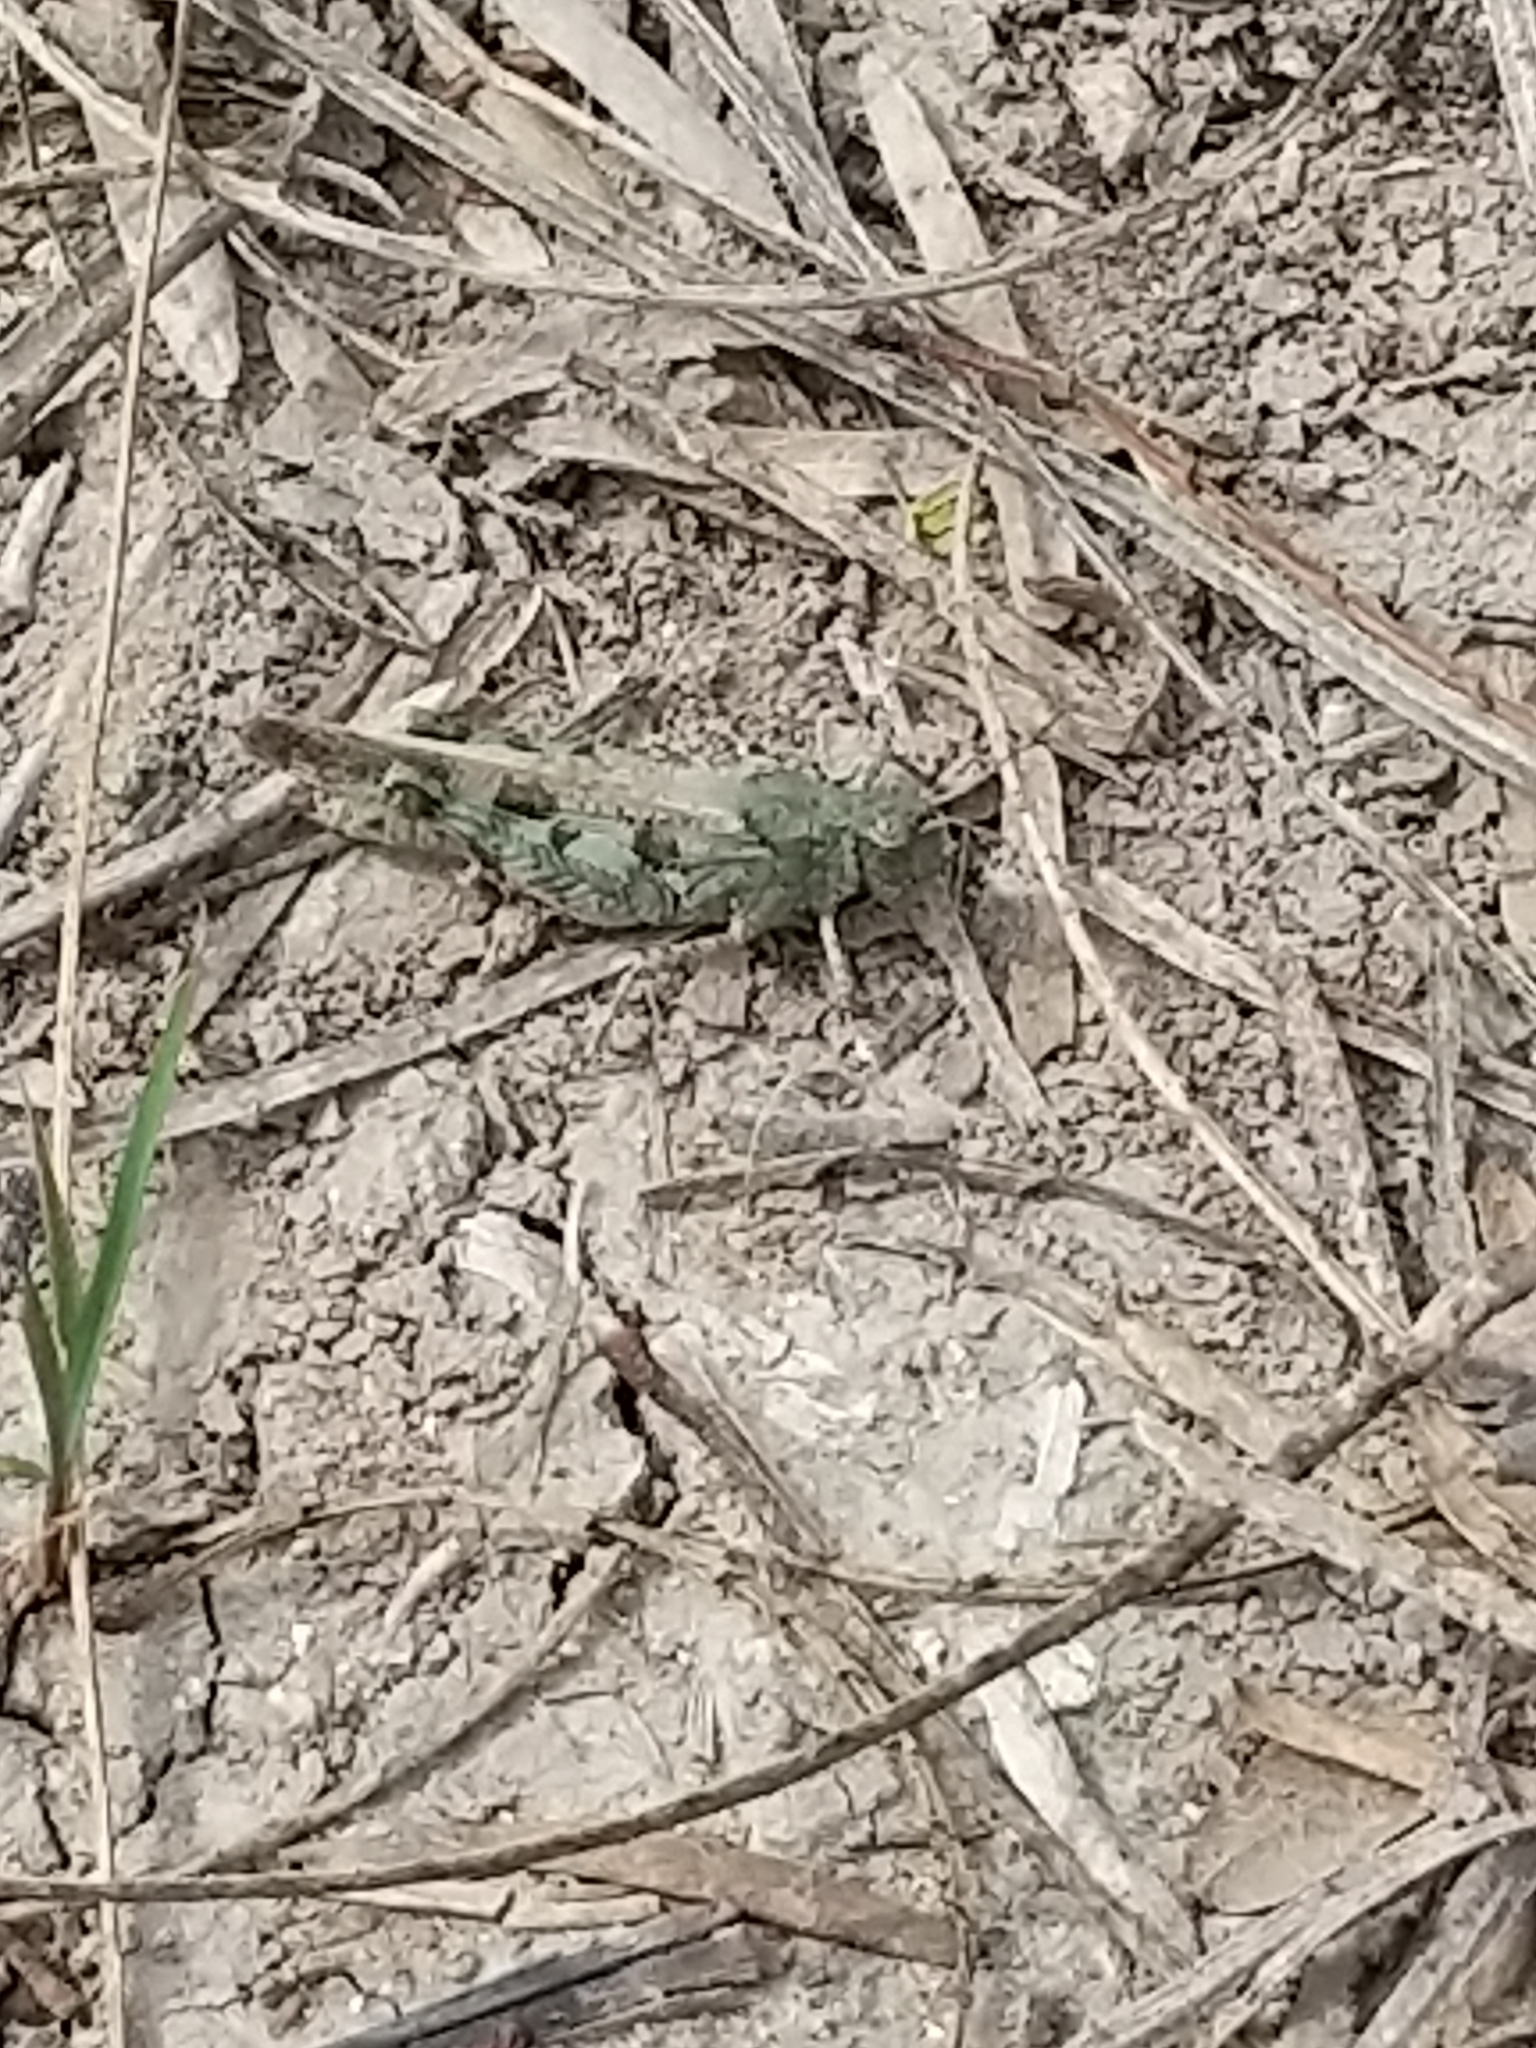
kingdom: Animalia
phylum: Arthropoda
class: Insecta
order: Orthoptera
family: Acrididae
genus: Nebulatettix
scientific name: Nebulatettix subgracilis
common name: Southwestern dusky grasshopper
